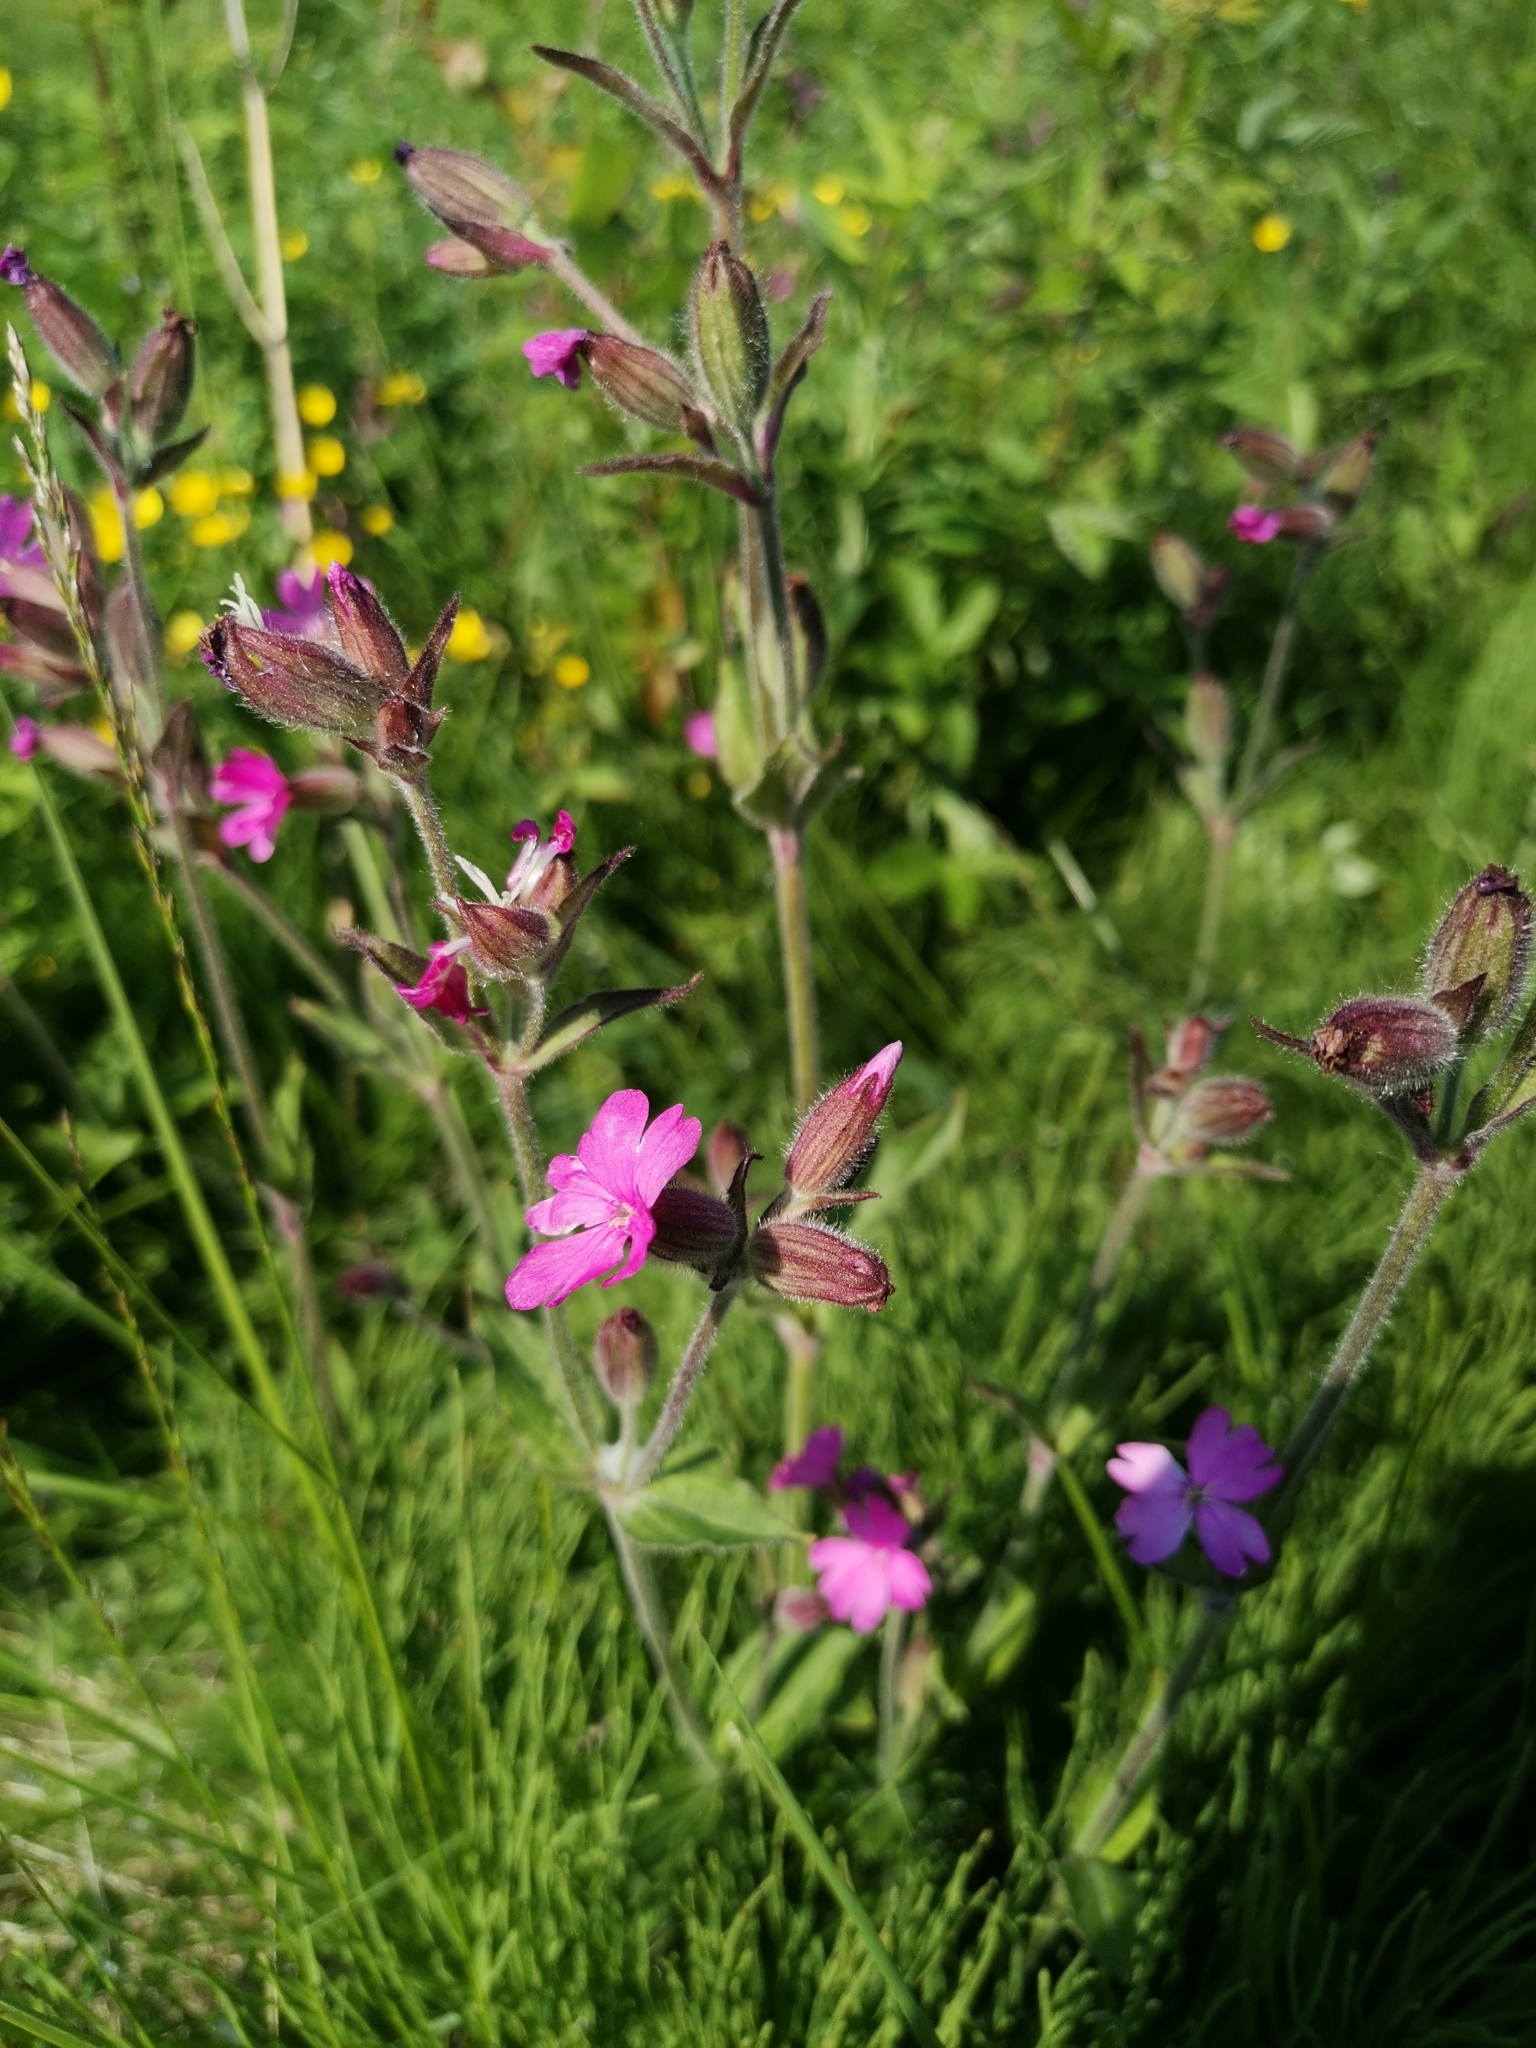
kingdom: Plantae
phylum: Tracheophyta
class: Magnoliopsida
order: Caryophyllales
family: Caryophyllaceae
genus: Silene
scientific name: Silene dioica
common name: Red campion
